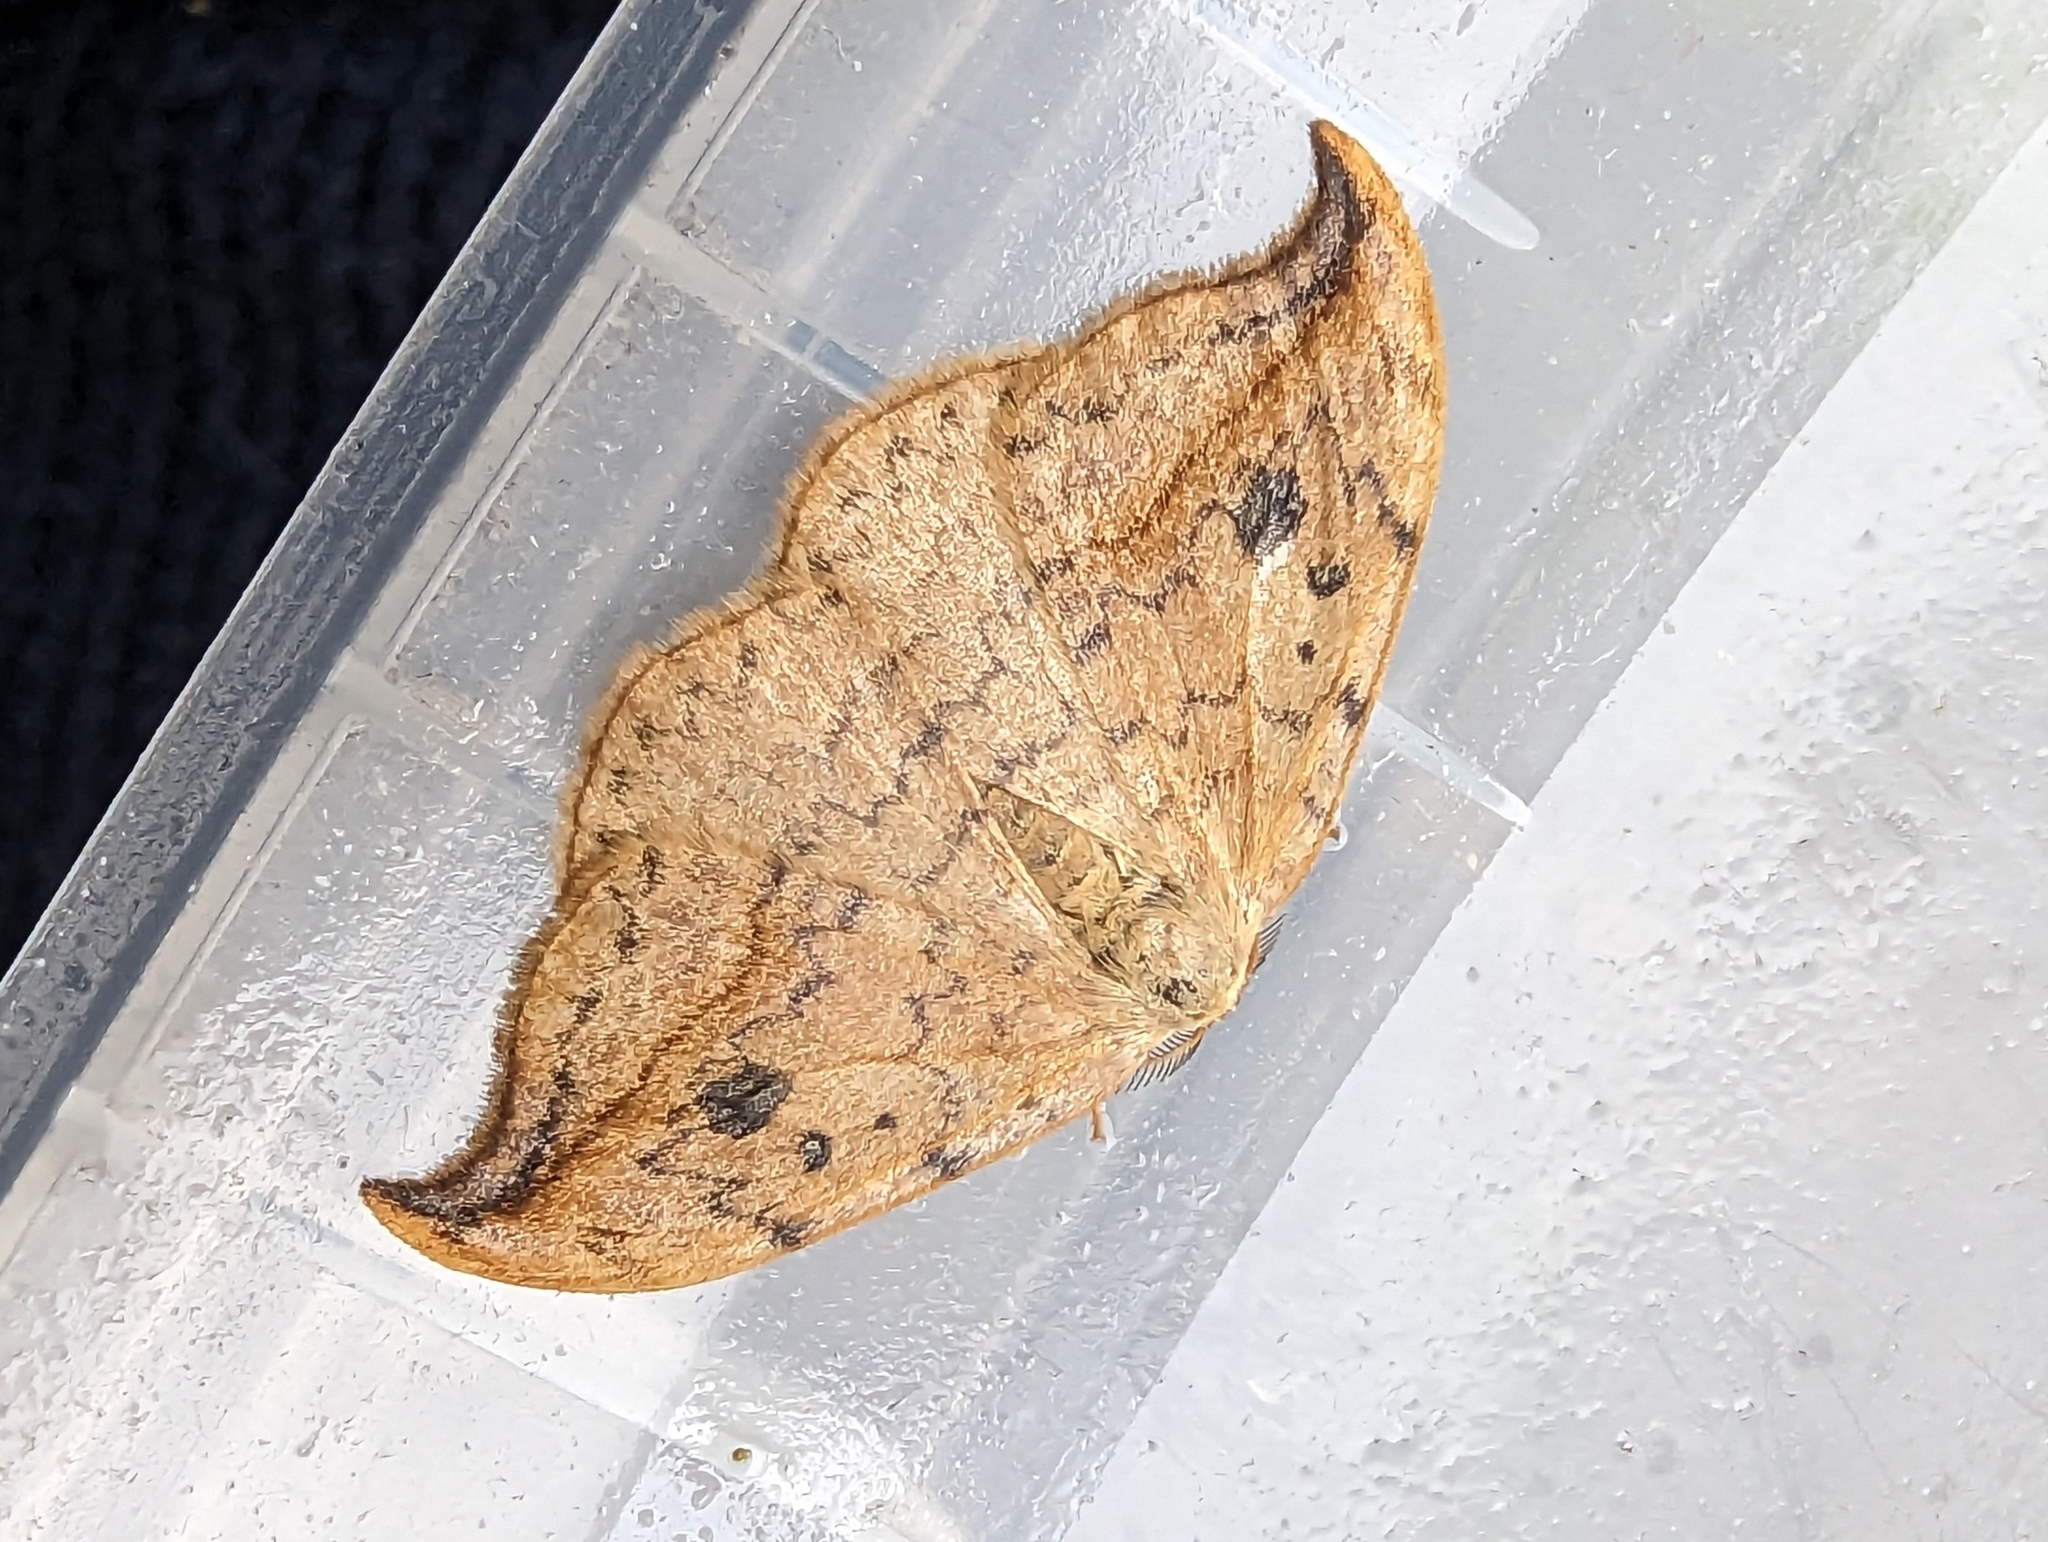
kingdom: Animalia
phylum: Arthropoda
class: Insecta
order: Lepidoptera
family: Drepanidae
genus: Drepana
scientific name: Drepana falcataria
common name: Pebble hook-tip
